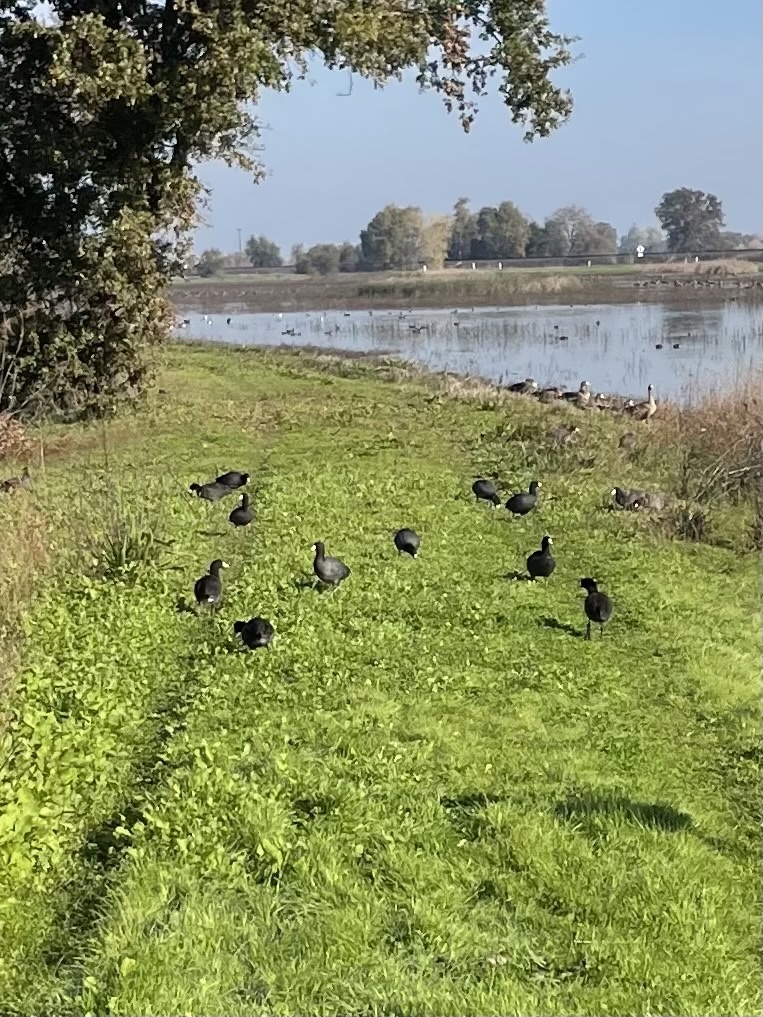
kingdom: Animalia
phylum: Chordata
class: Aves
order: Gruiformes
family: Rallidae
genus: Fulica
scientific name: Fulica americana
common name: American coot
